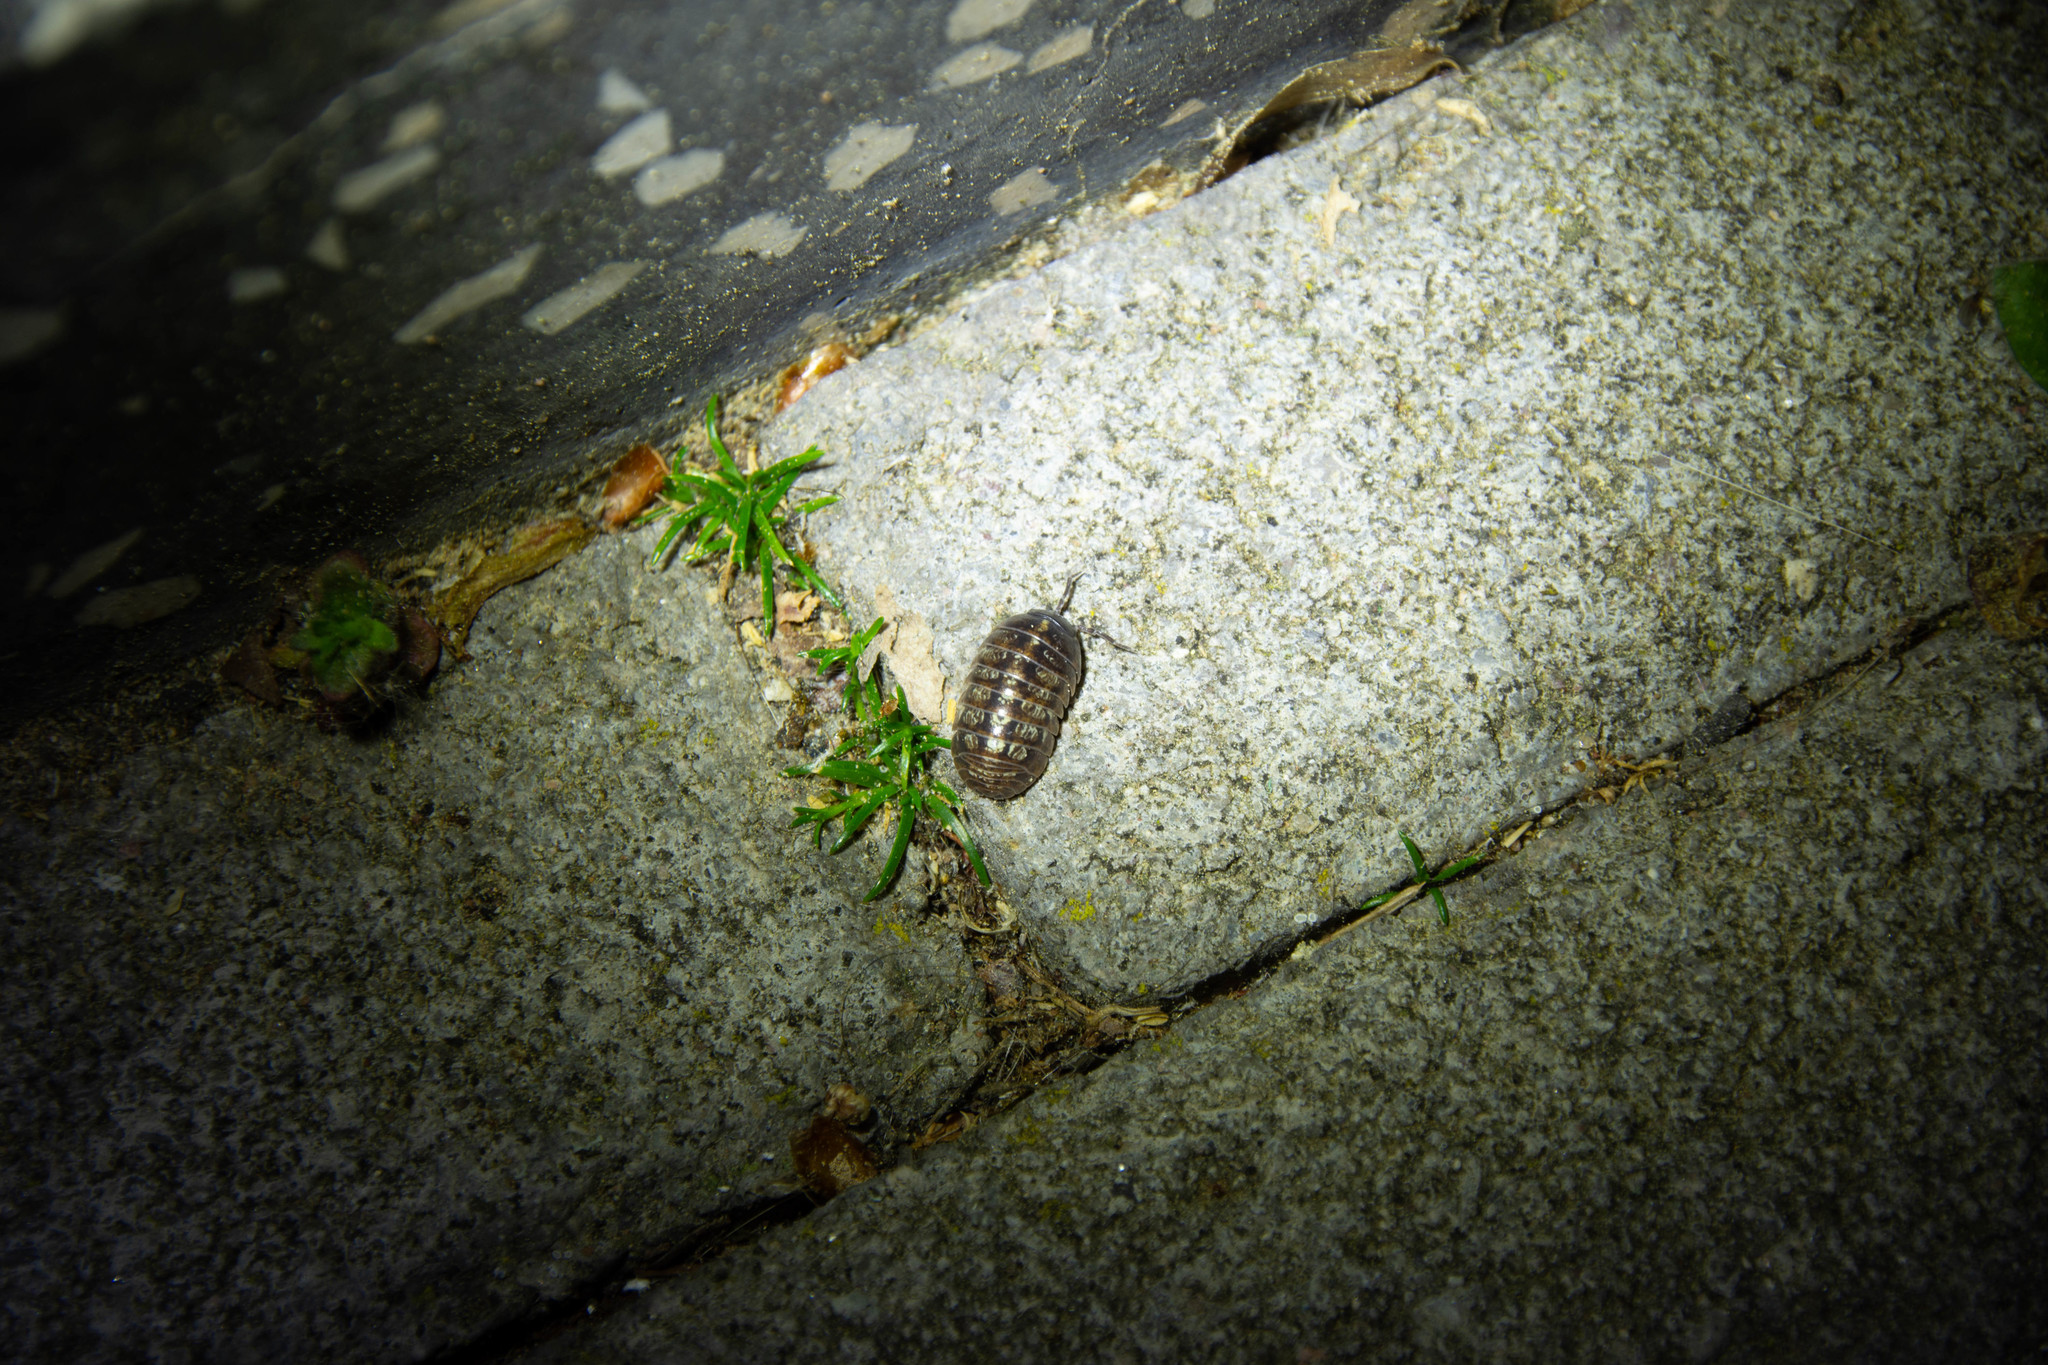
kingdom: Animalia
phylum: Arthropoda
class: Malacostraca
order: Isopoda
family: Armadillidiidae
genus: Armadillidium
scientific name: Armadillidium vulgare
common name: Common pill woodlouse
